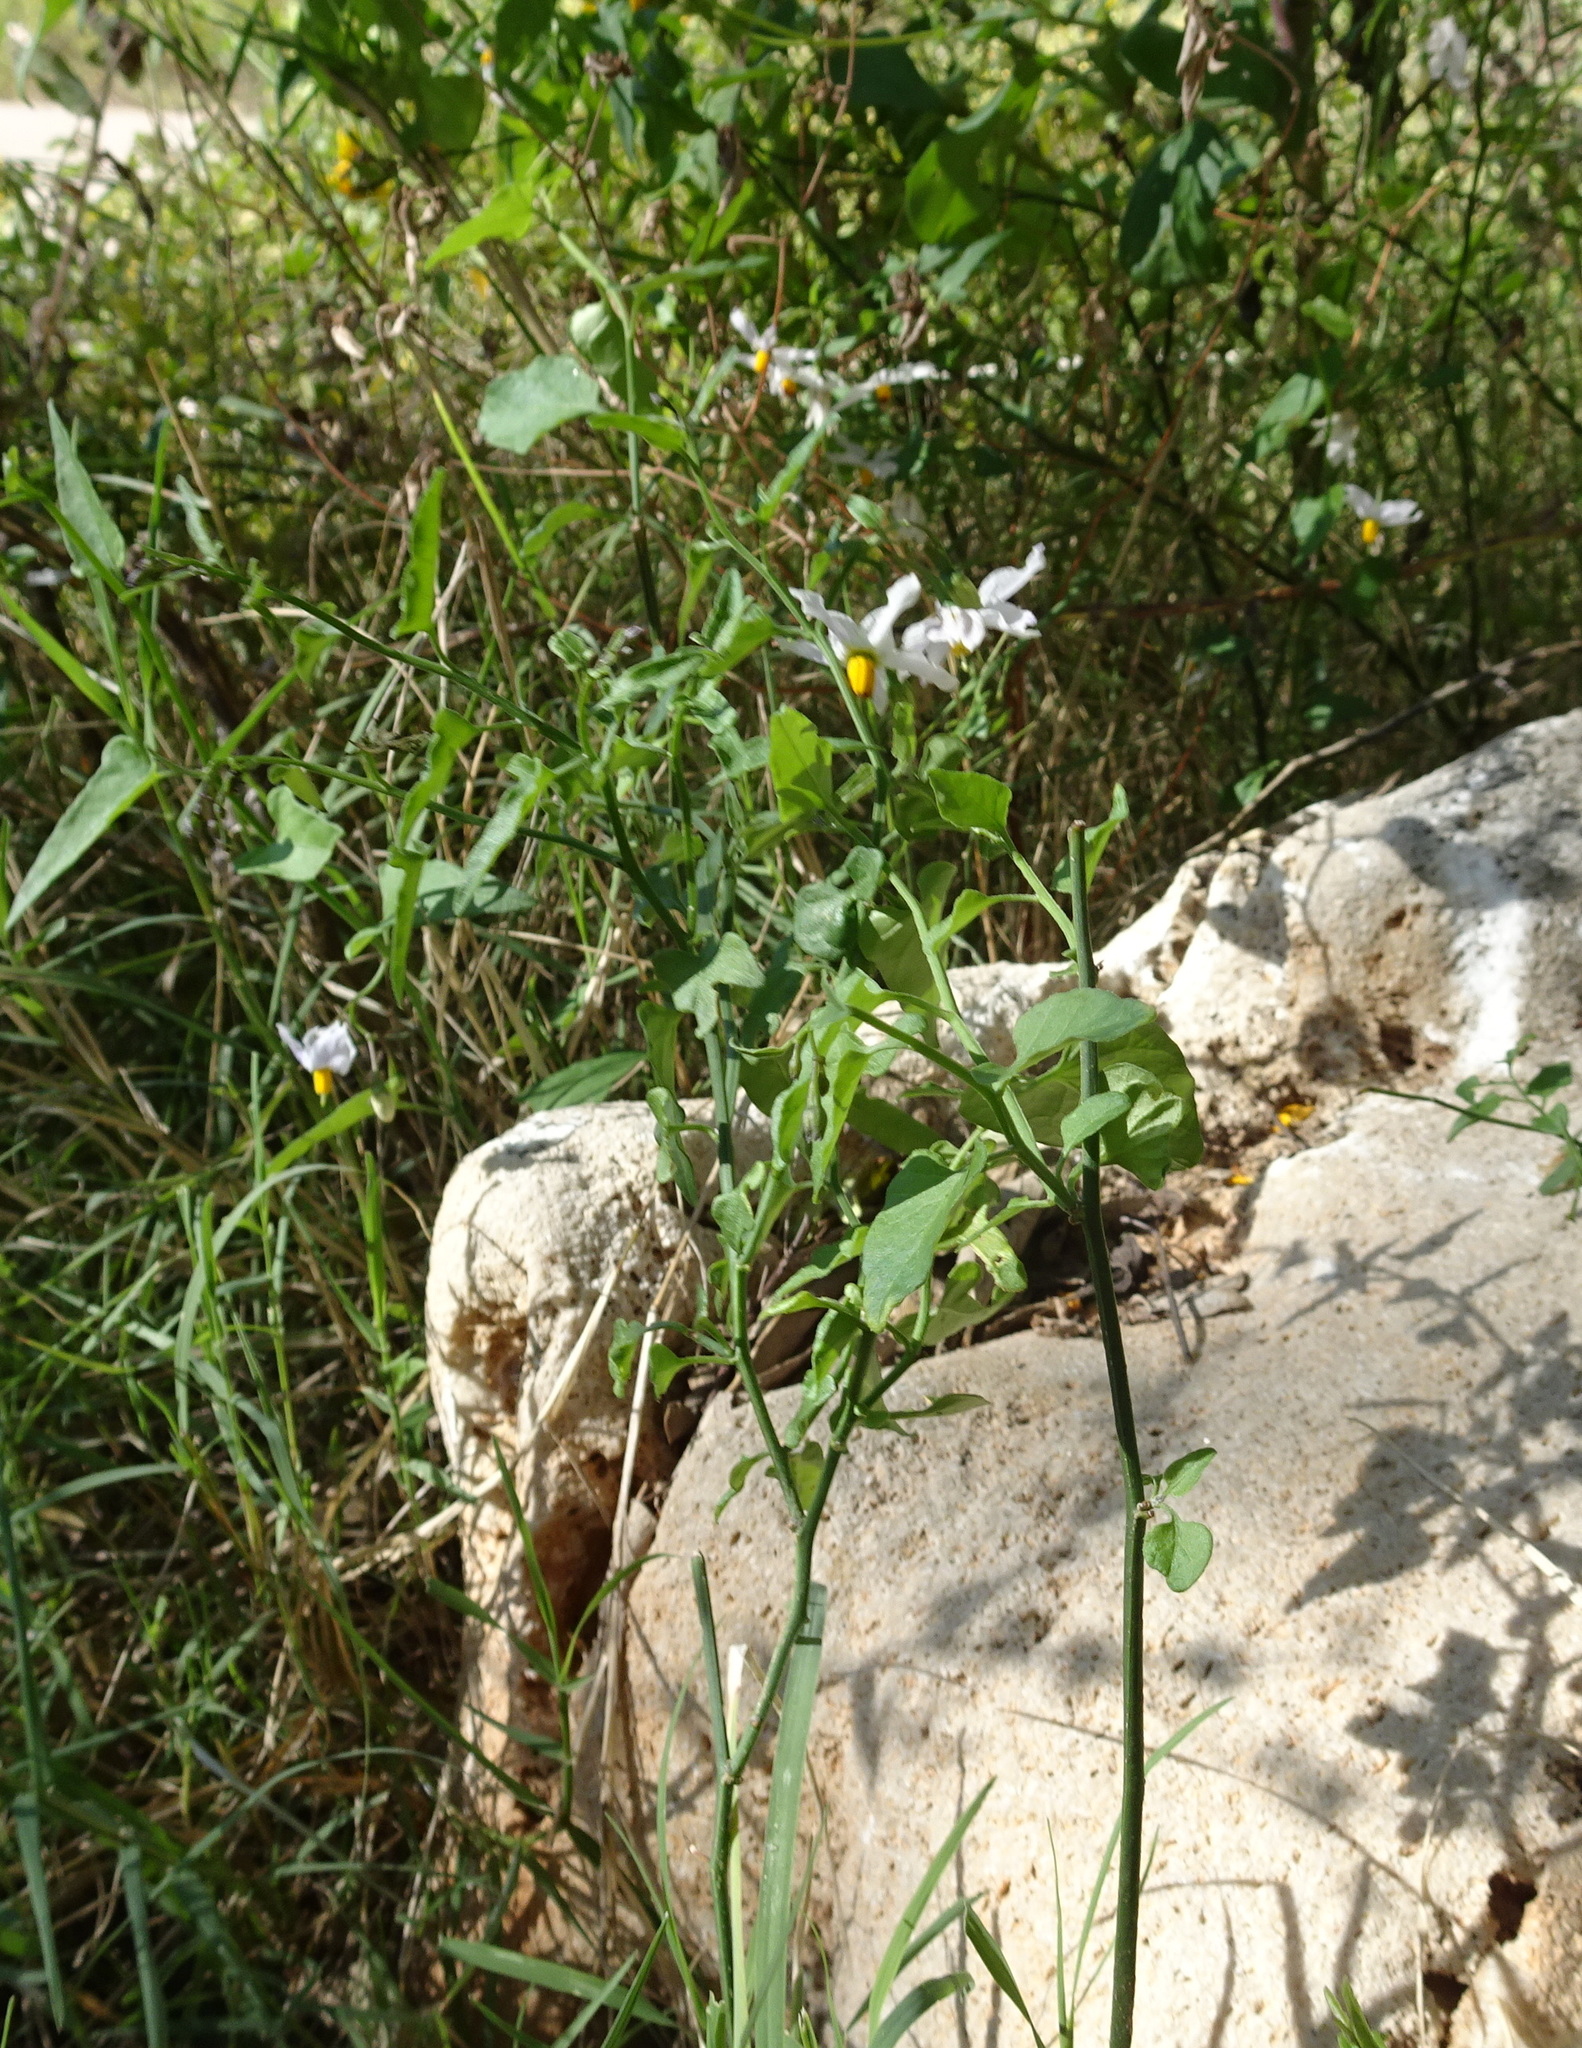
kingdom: Plantae
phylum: Tracheophyta
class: Magnoliopsida
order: Solanales
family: Solanaceae
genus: Solanum
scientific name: Solanum triquetrum
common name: Texas nightshade
